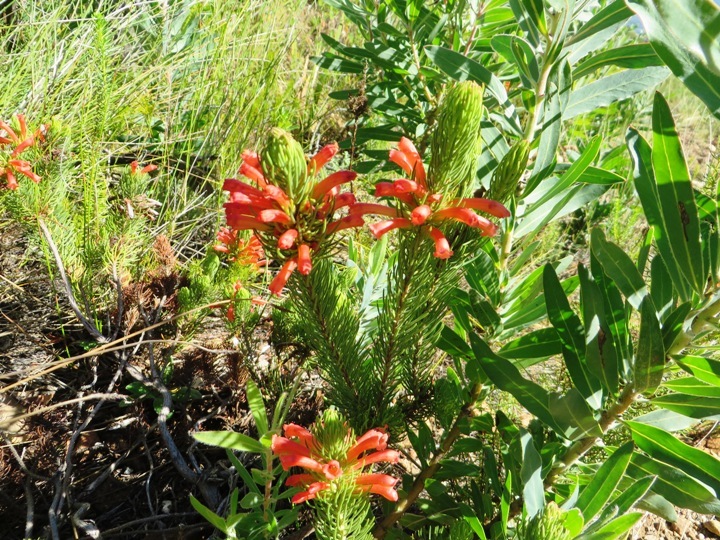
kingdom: Plantae
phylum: Tracheophyta
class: Magnoliopsida
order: Ericales
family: Ericaceae
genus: Erica
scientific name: Erica viscaria
